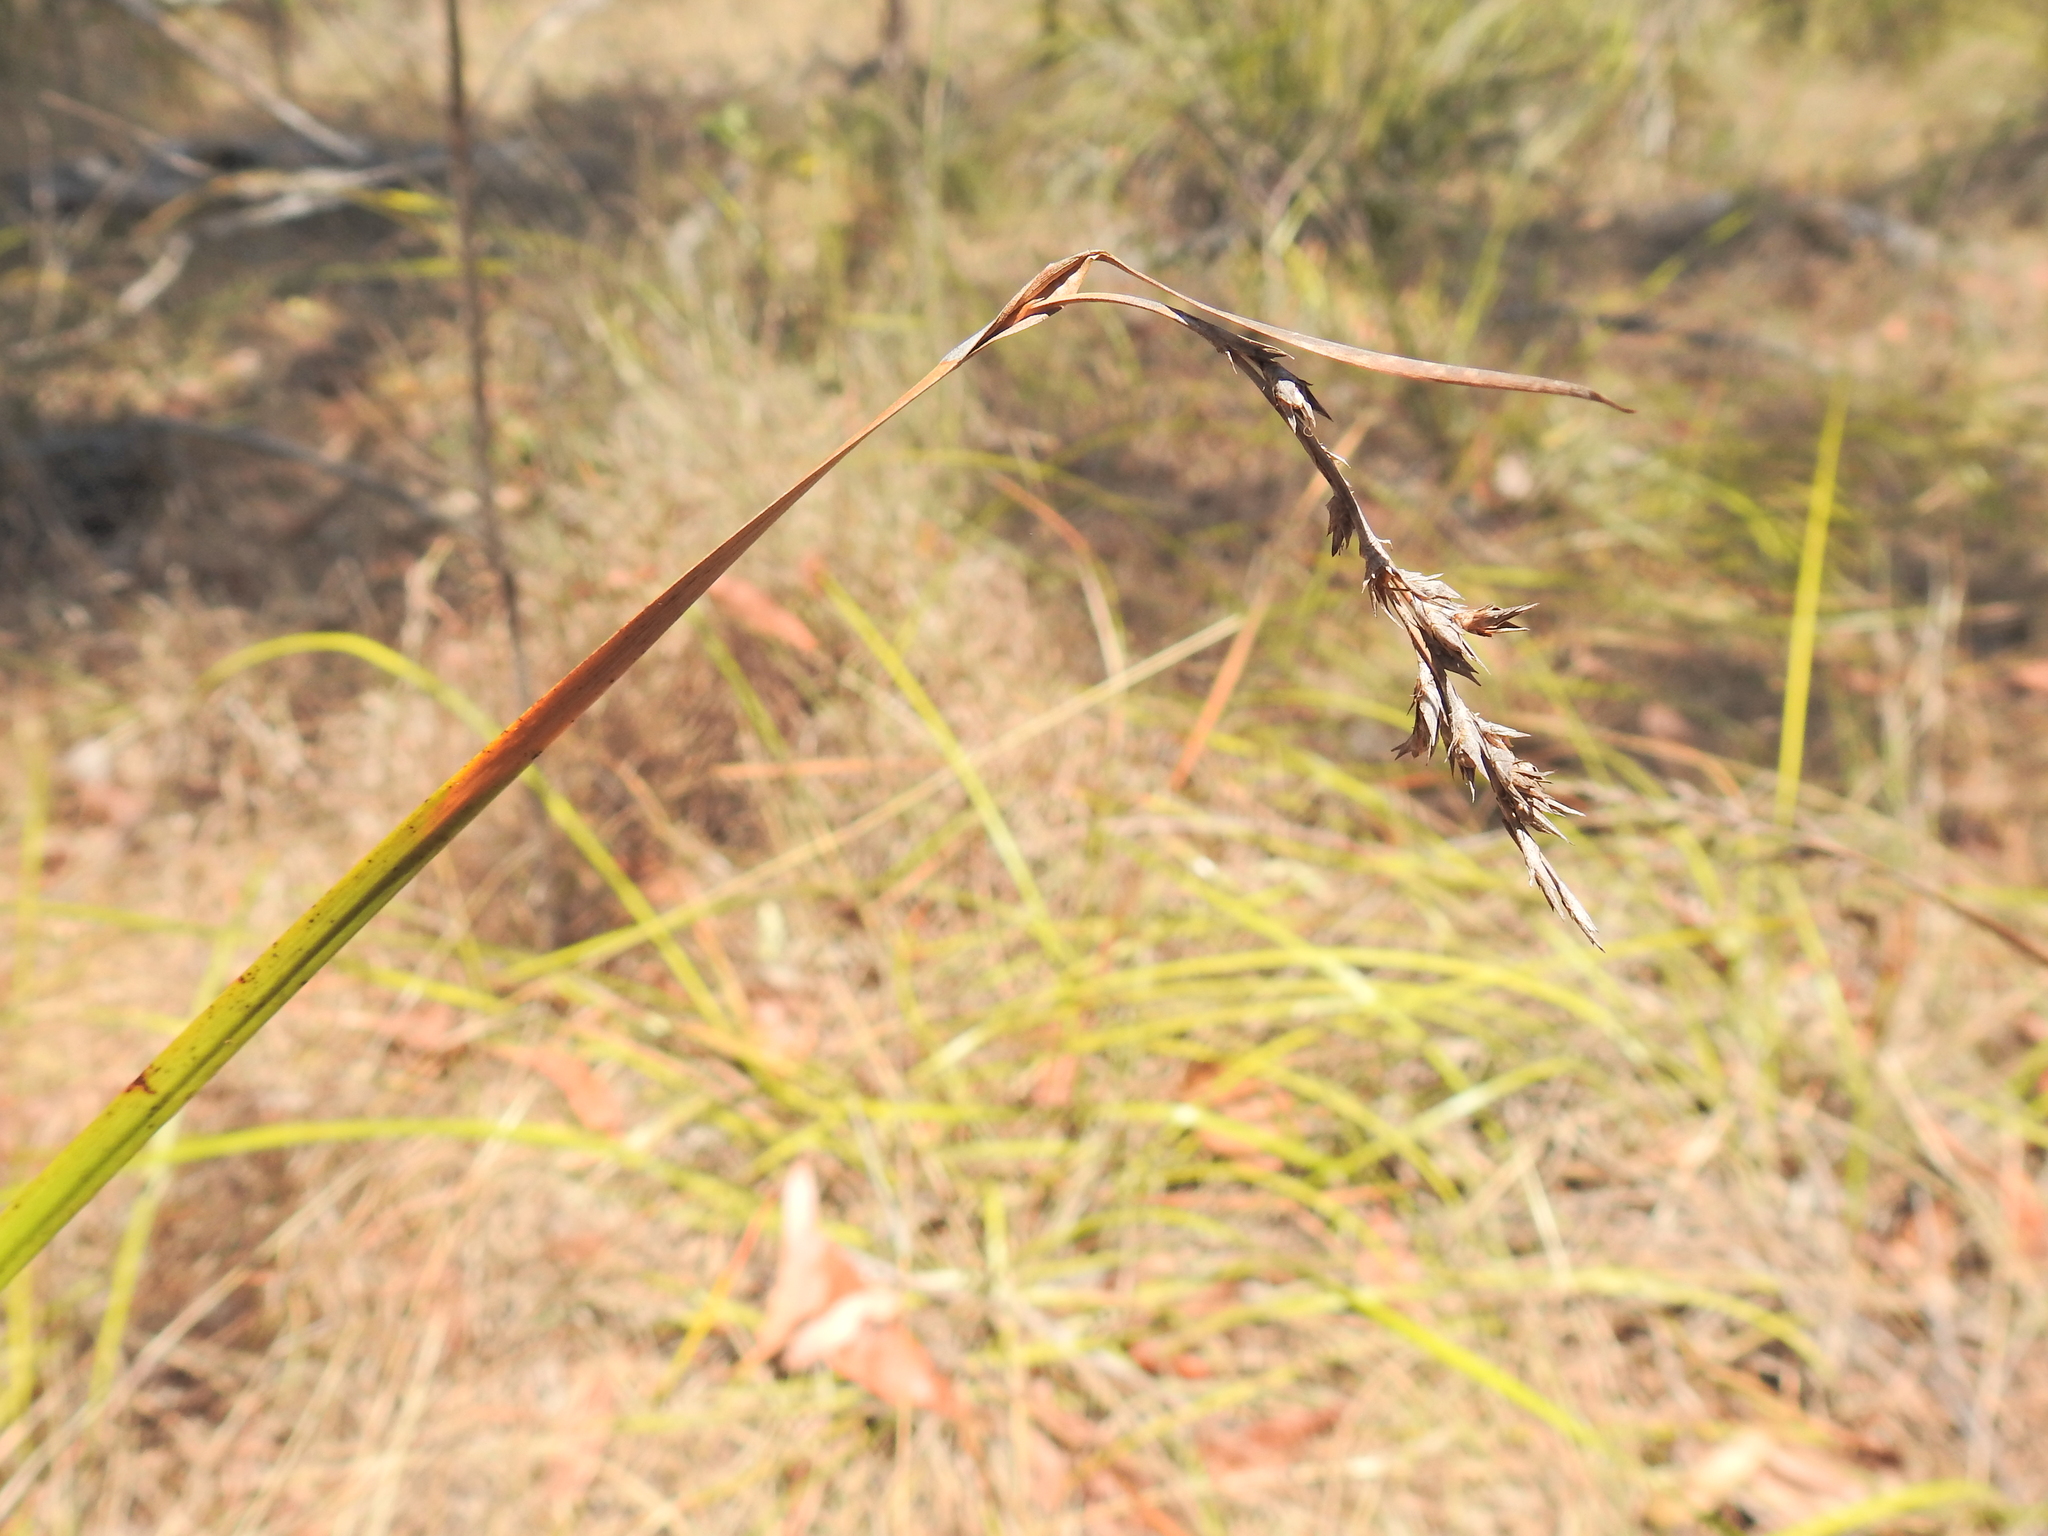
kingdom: Plantae
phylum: Tracheophyta
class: Liliopsida
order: Poales
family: Cyperaceae
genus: Lepidosperma
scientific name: Lepidosperma laterale
